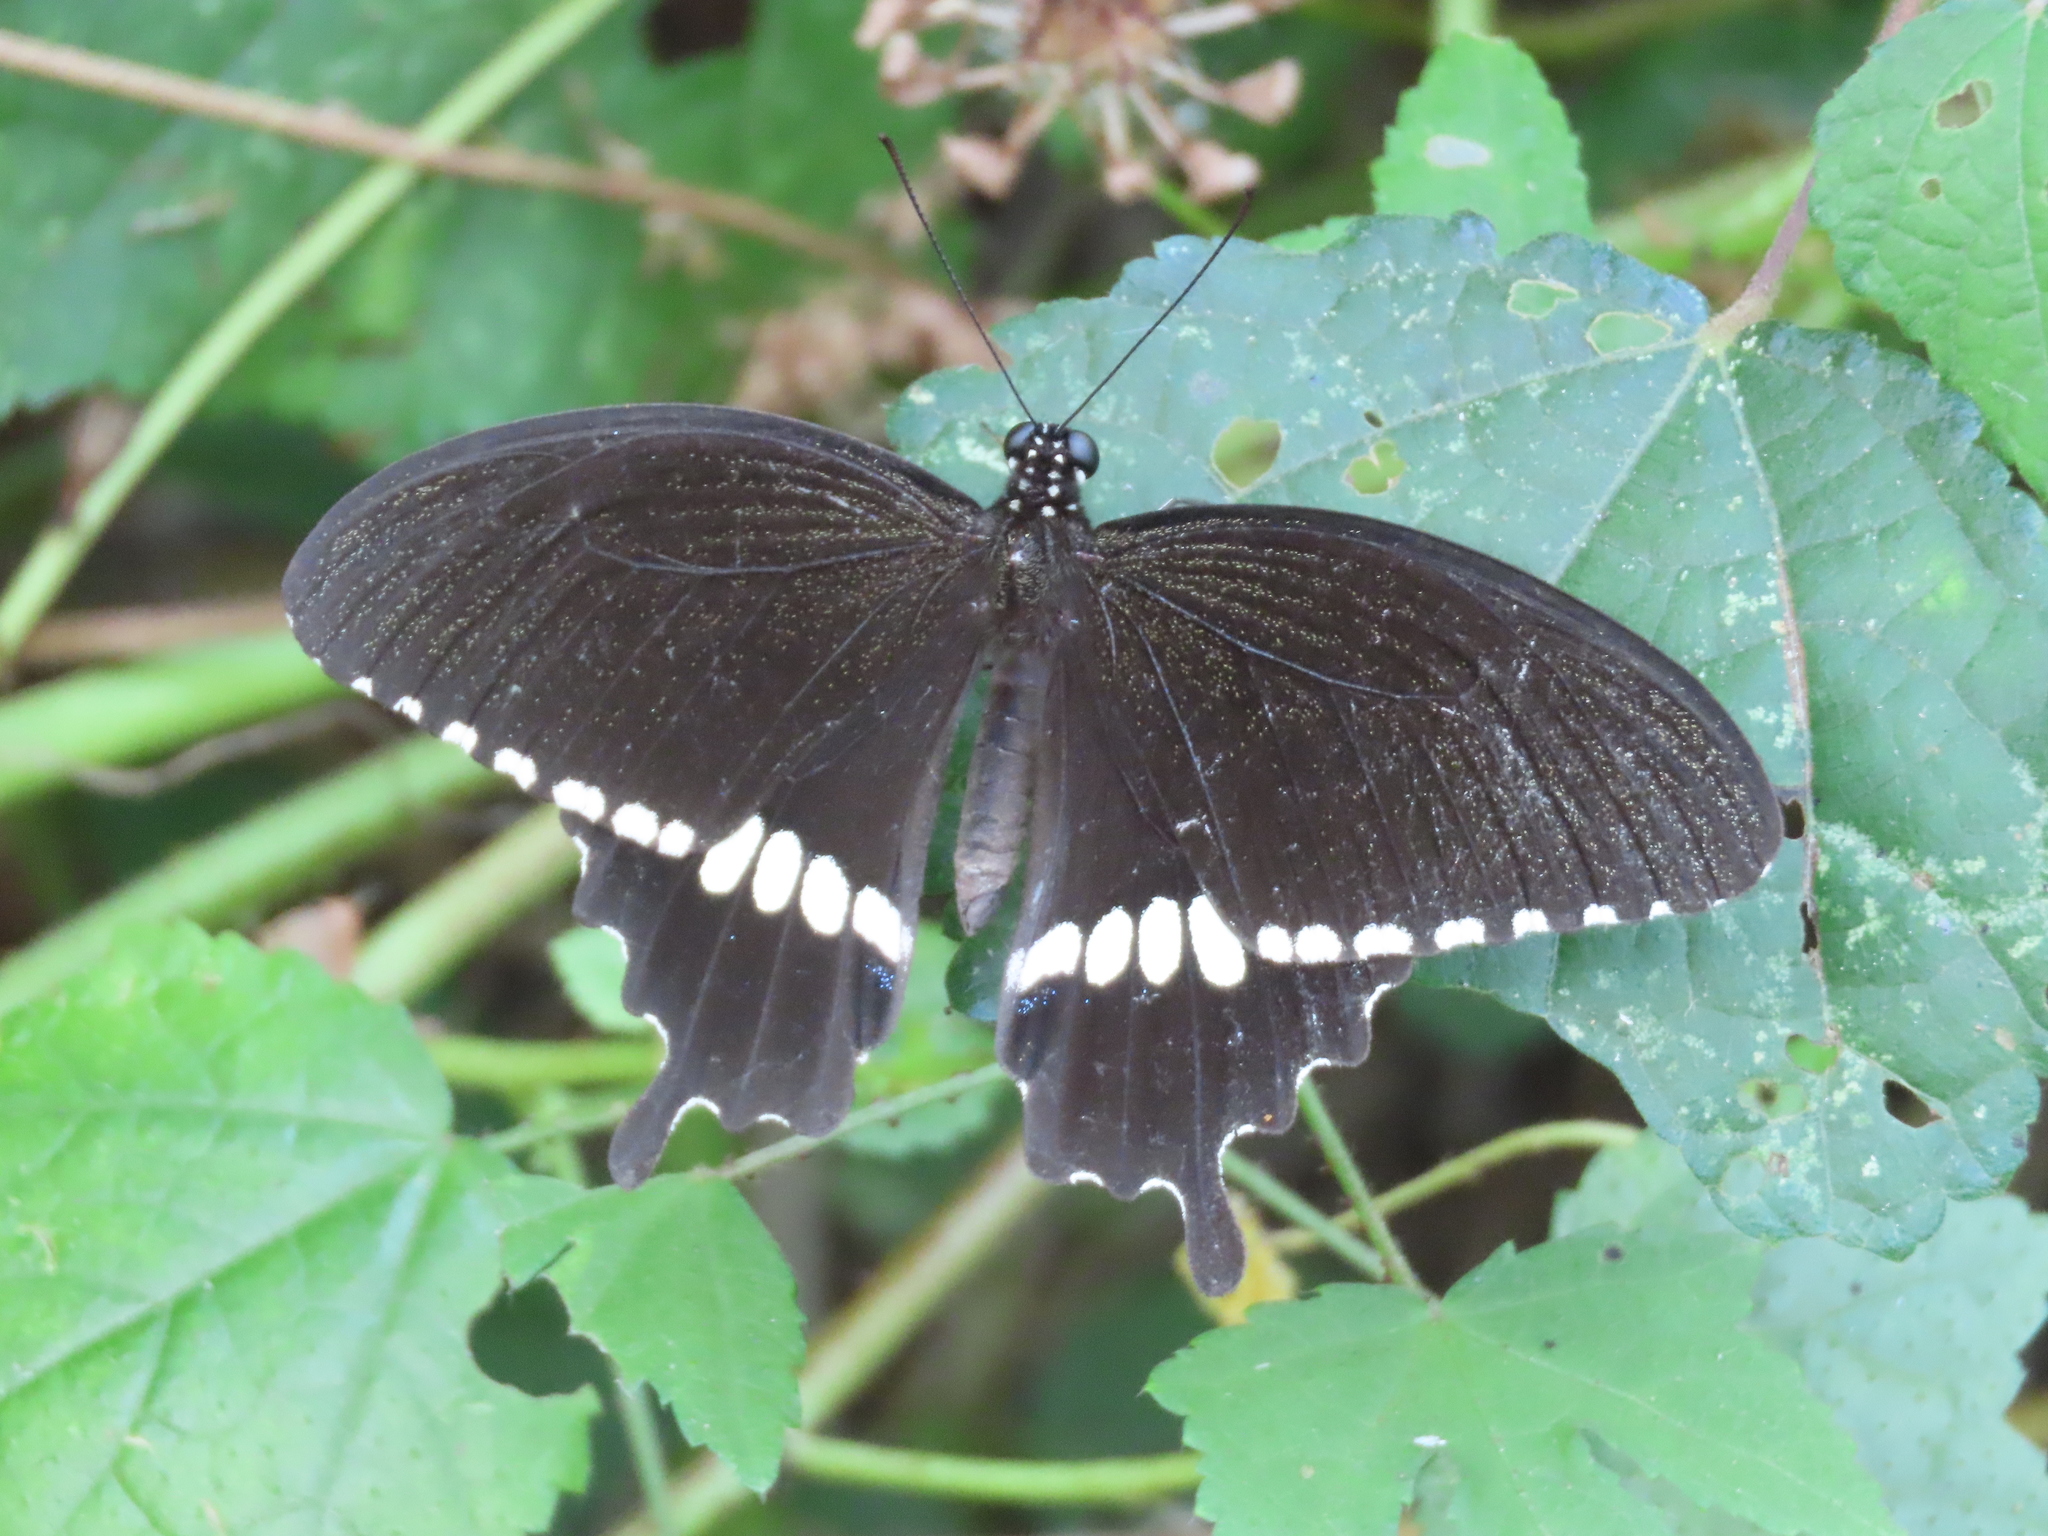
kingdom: Animalia
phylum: Arthropoda
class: Insecta
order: Lepidoptera
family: Papilionidae
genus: Papilio
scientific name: Papilio polytes
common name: Common mormon
